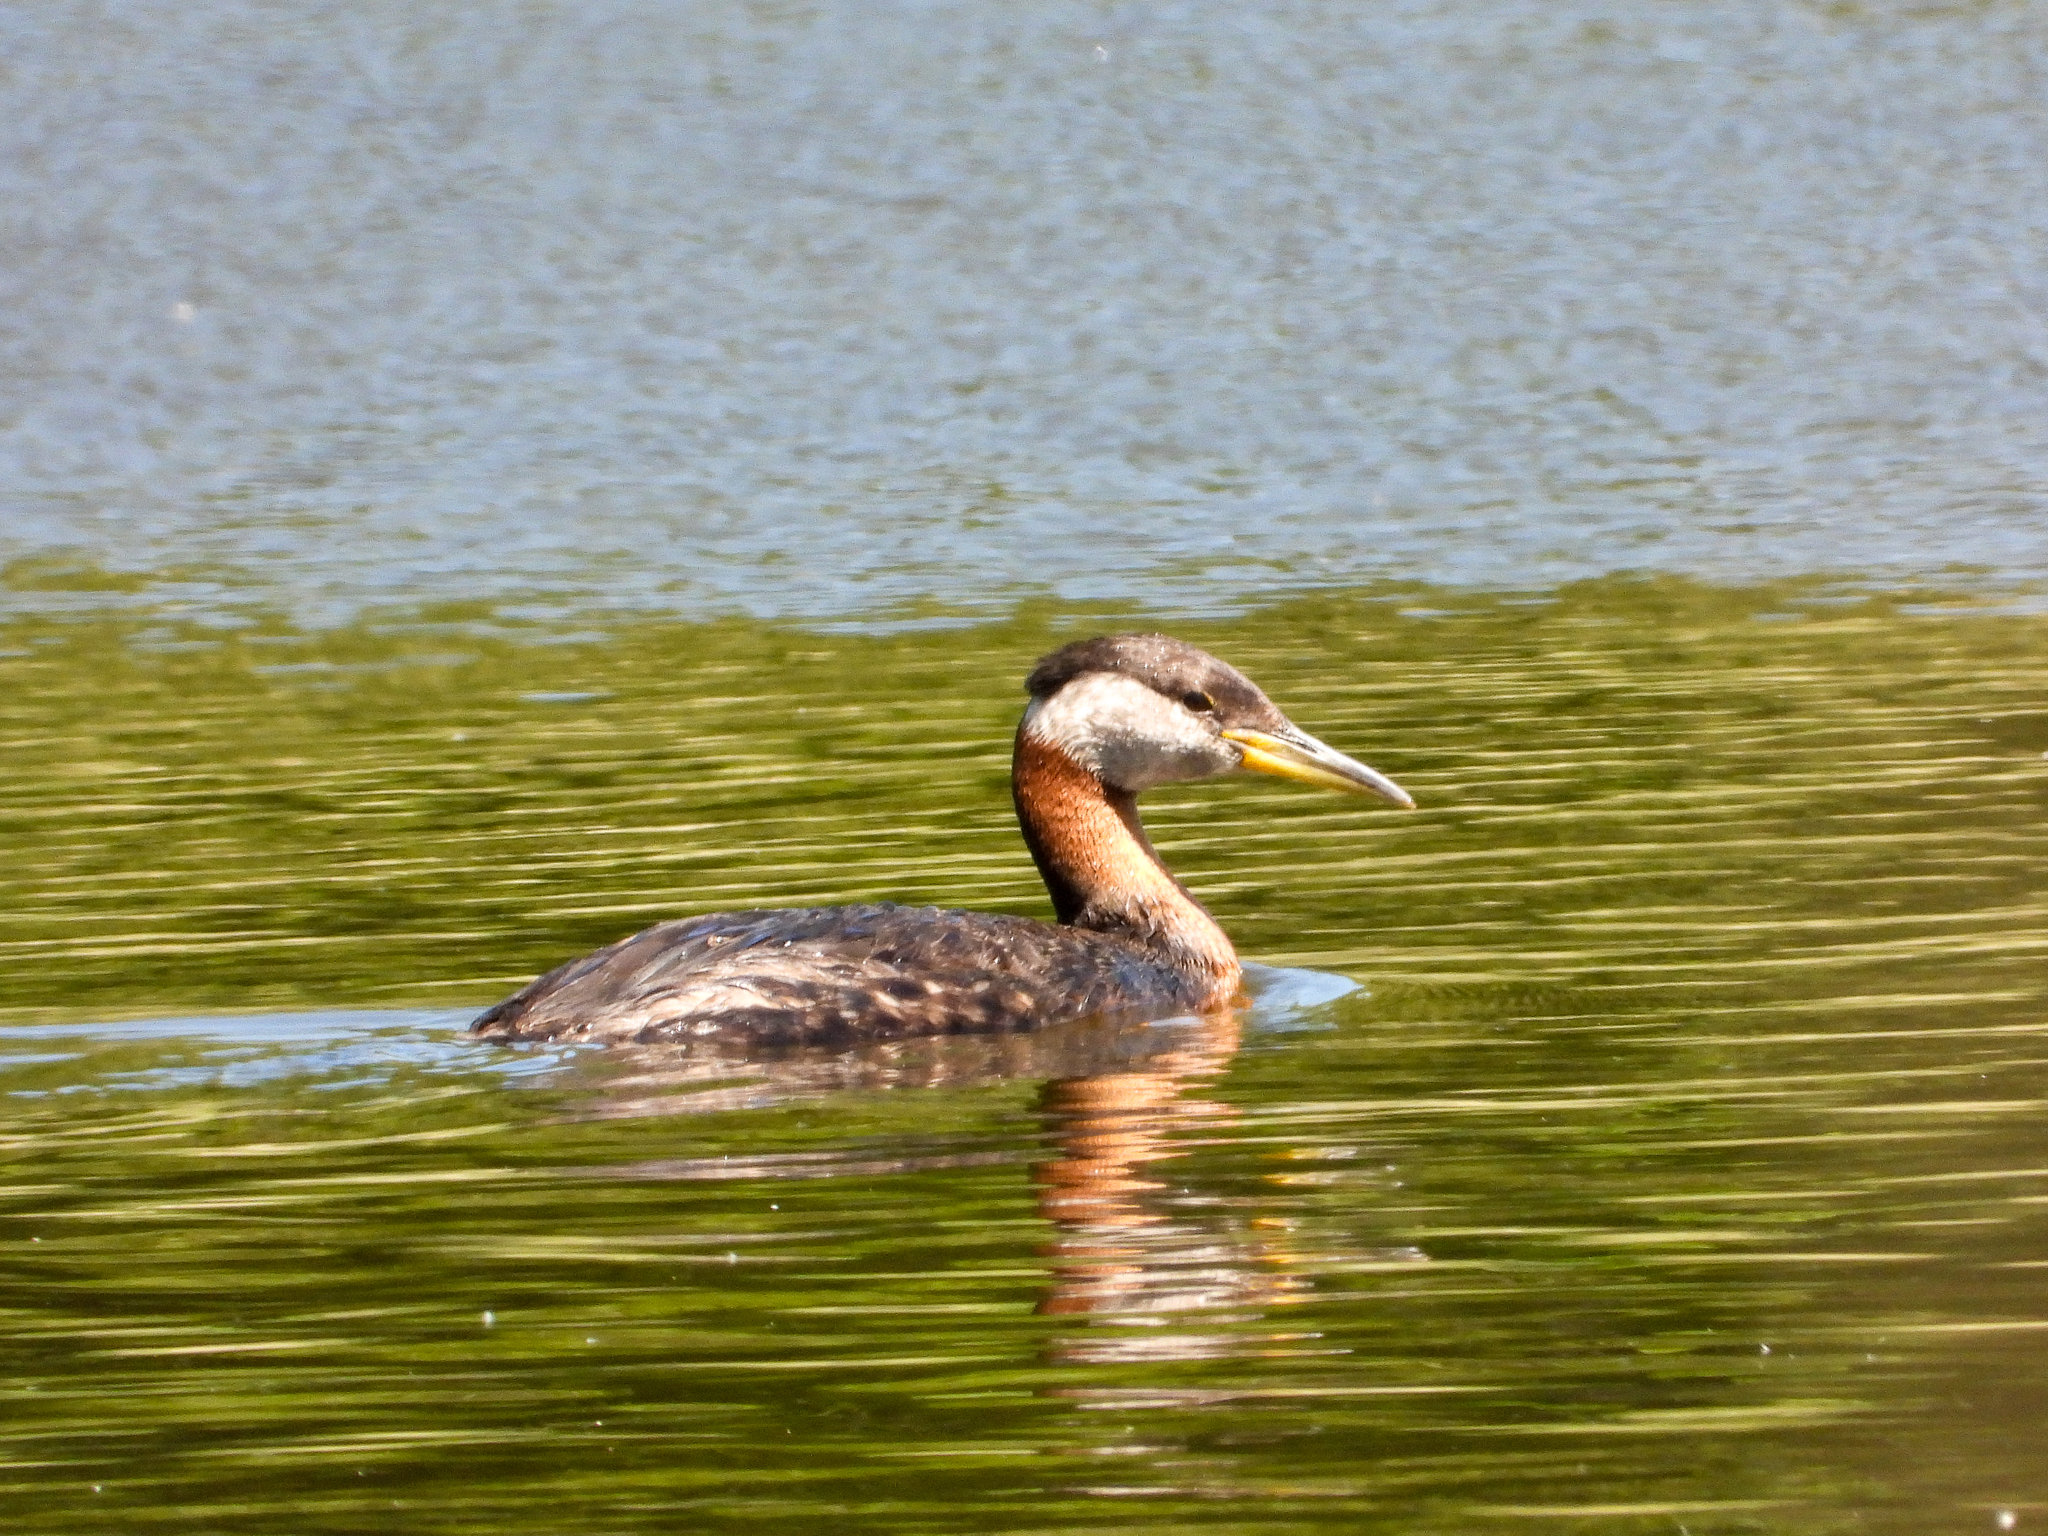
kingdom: Animalia
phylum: Chordata
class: Aves
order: Podicipediformes
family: Podicipedidae
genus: Podiceps
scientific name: Podiceps grisegena
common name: Red-necked grebe
